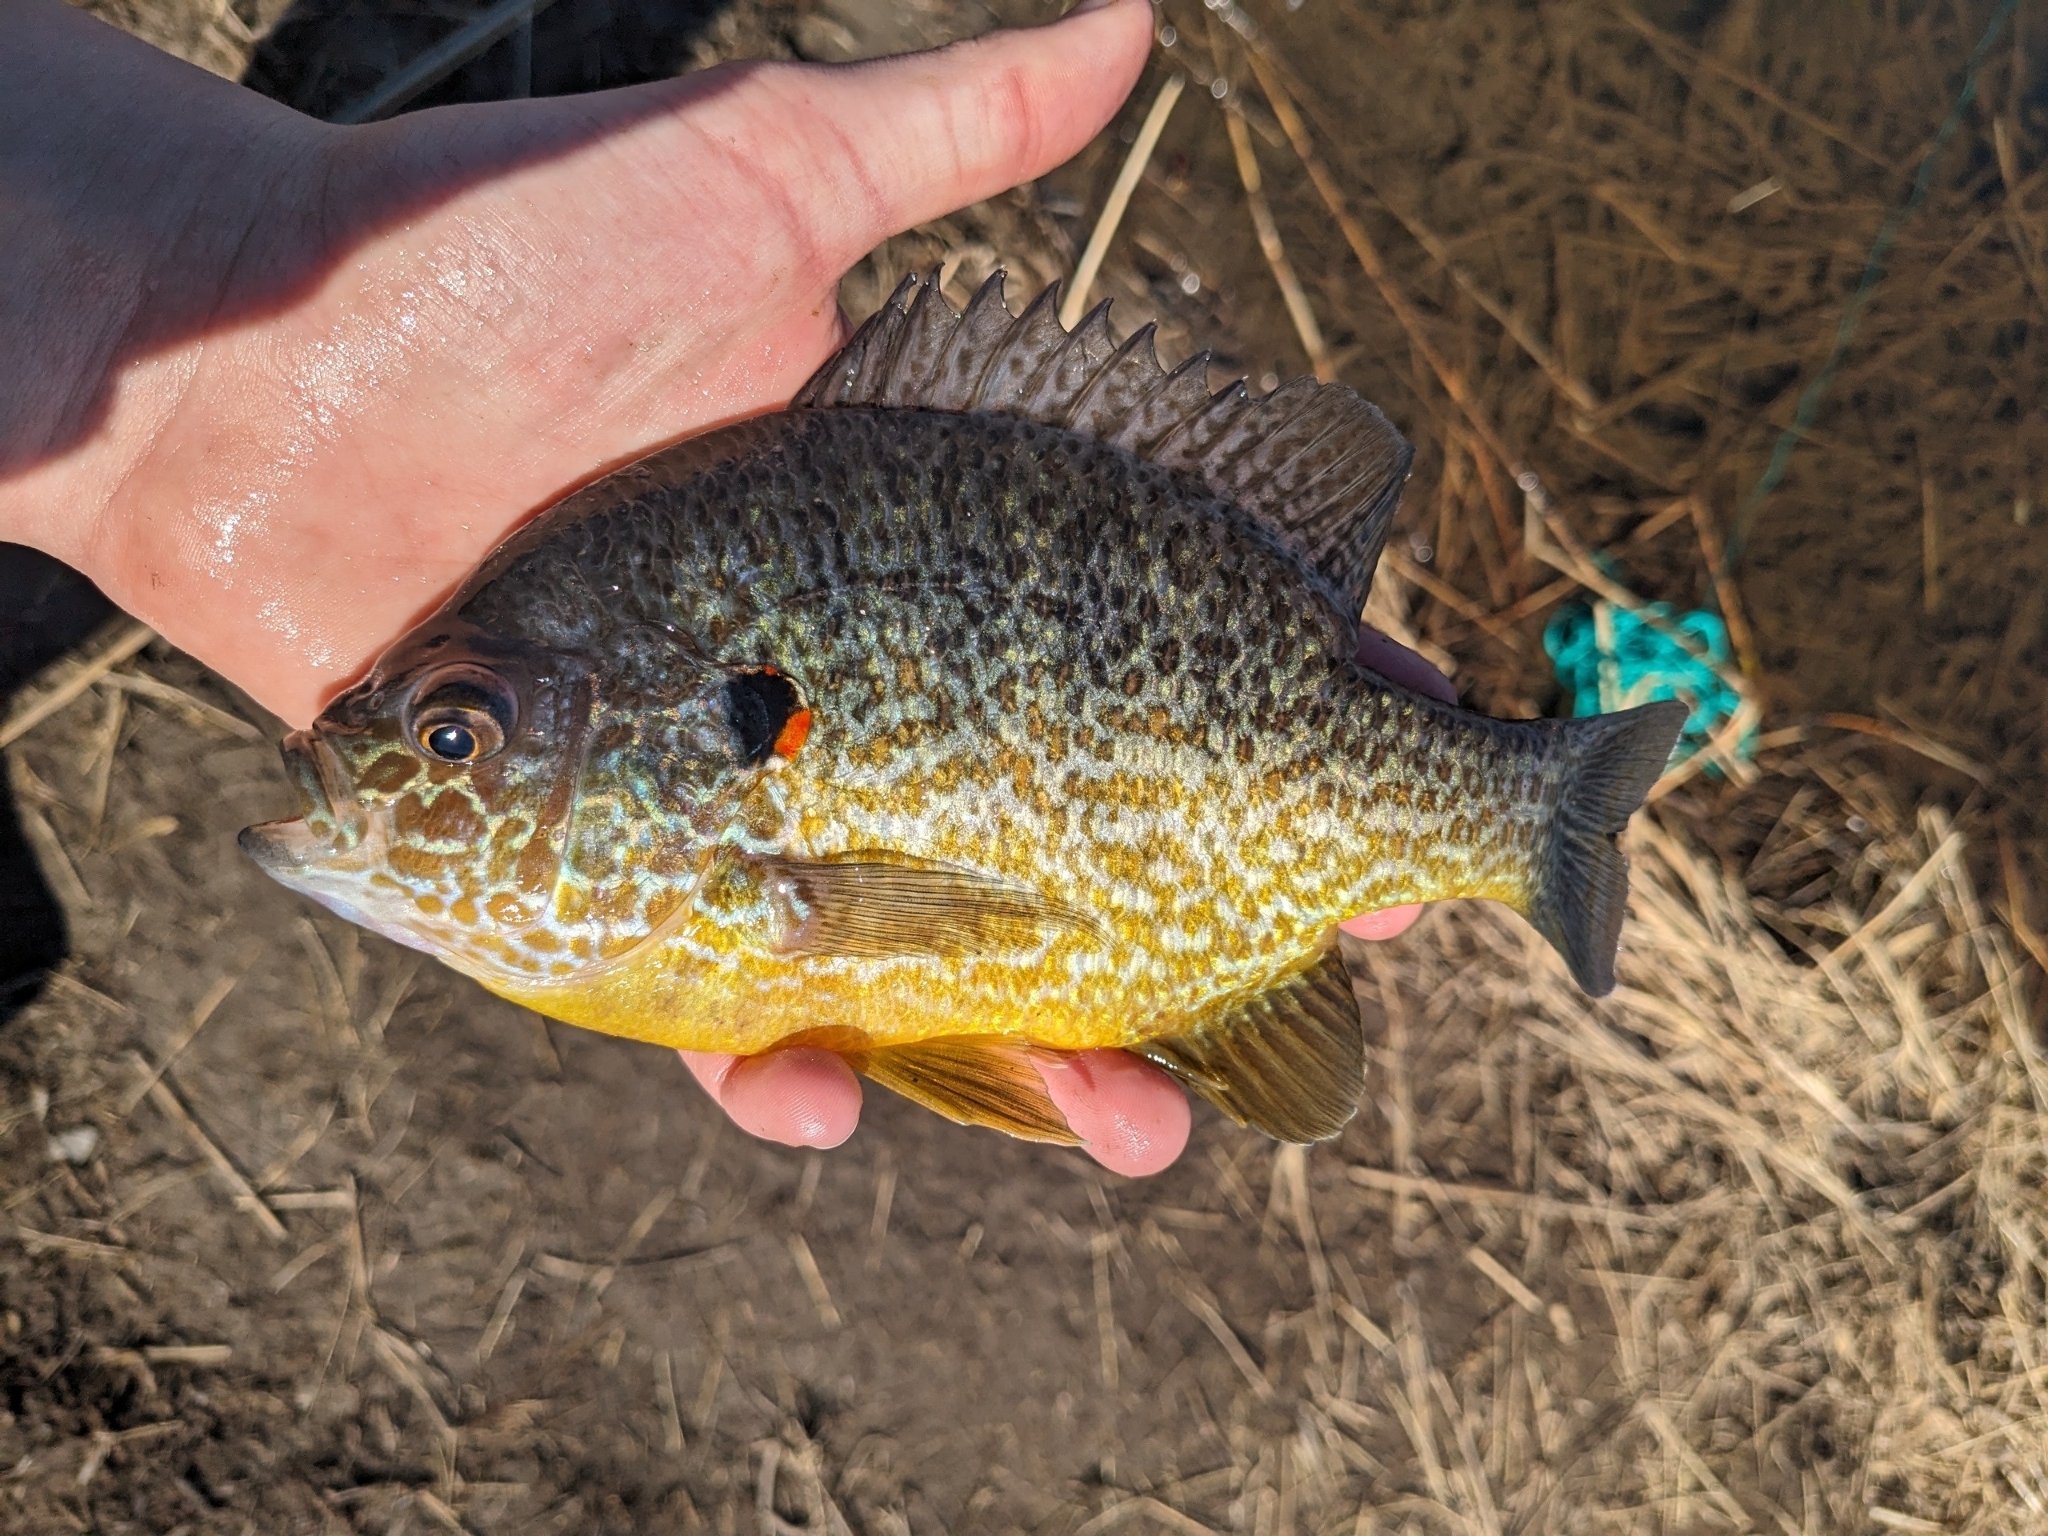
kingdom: Animalia
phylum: Chordata
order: Perciformes
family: Centrarchidae
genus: Lepomis
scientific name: Lepomis gibbosus
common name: Pumpkinseed
